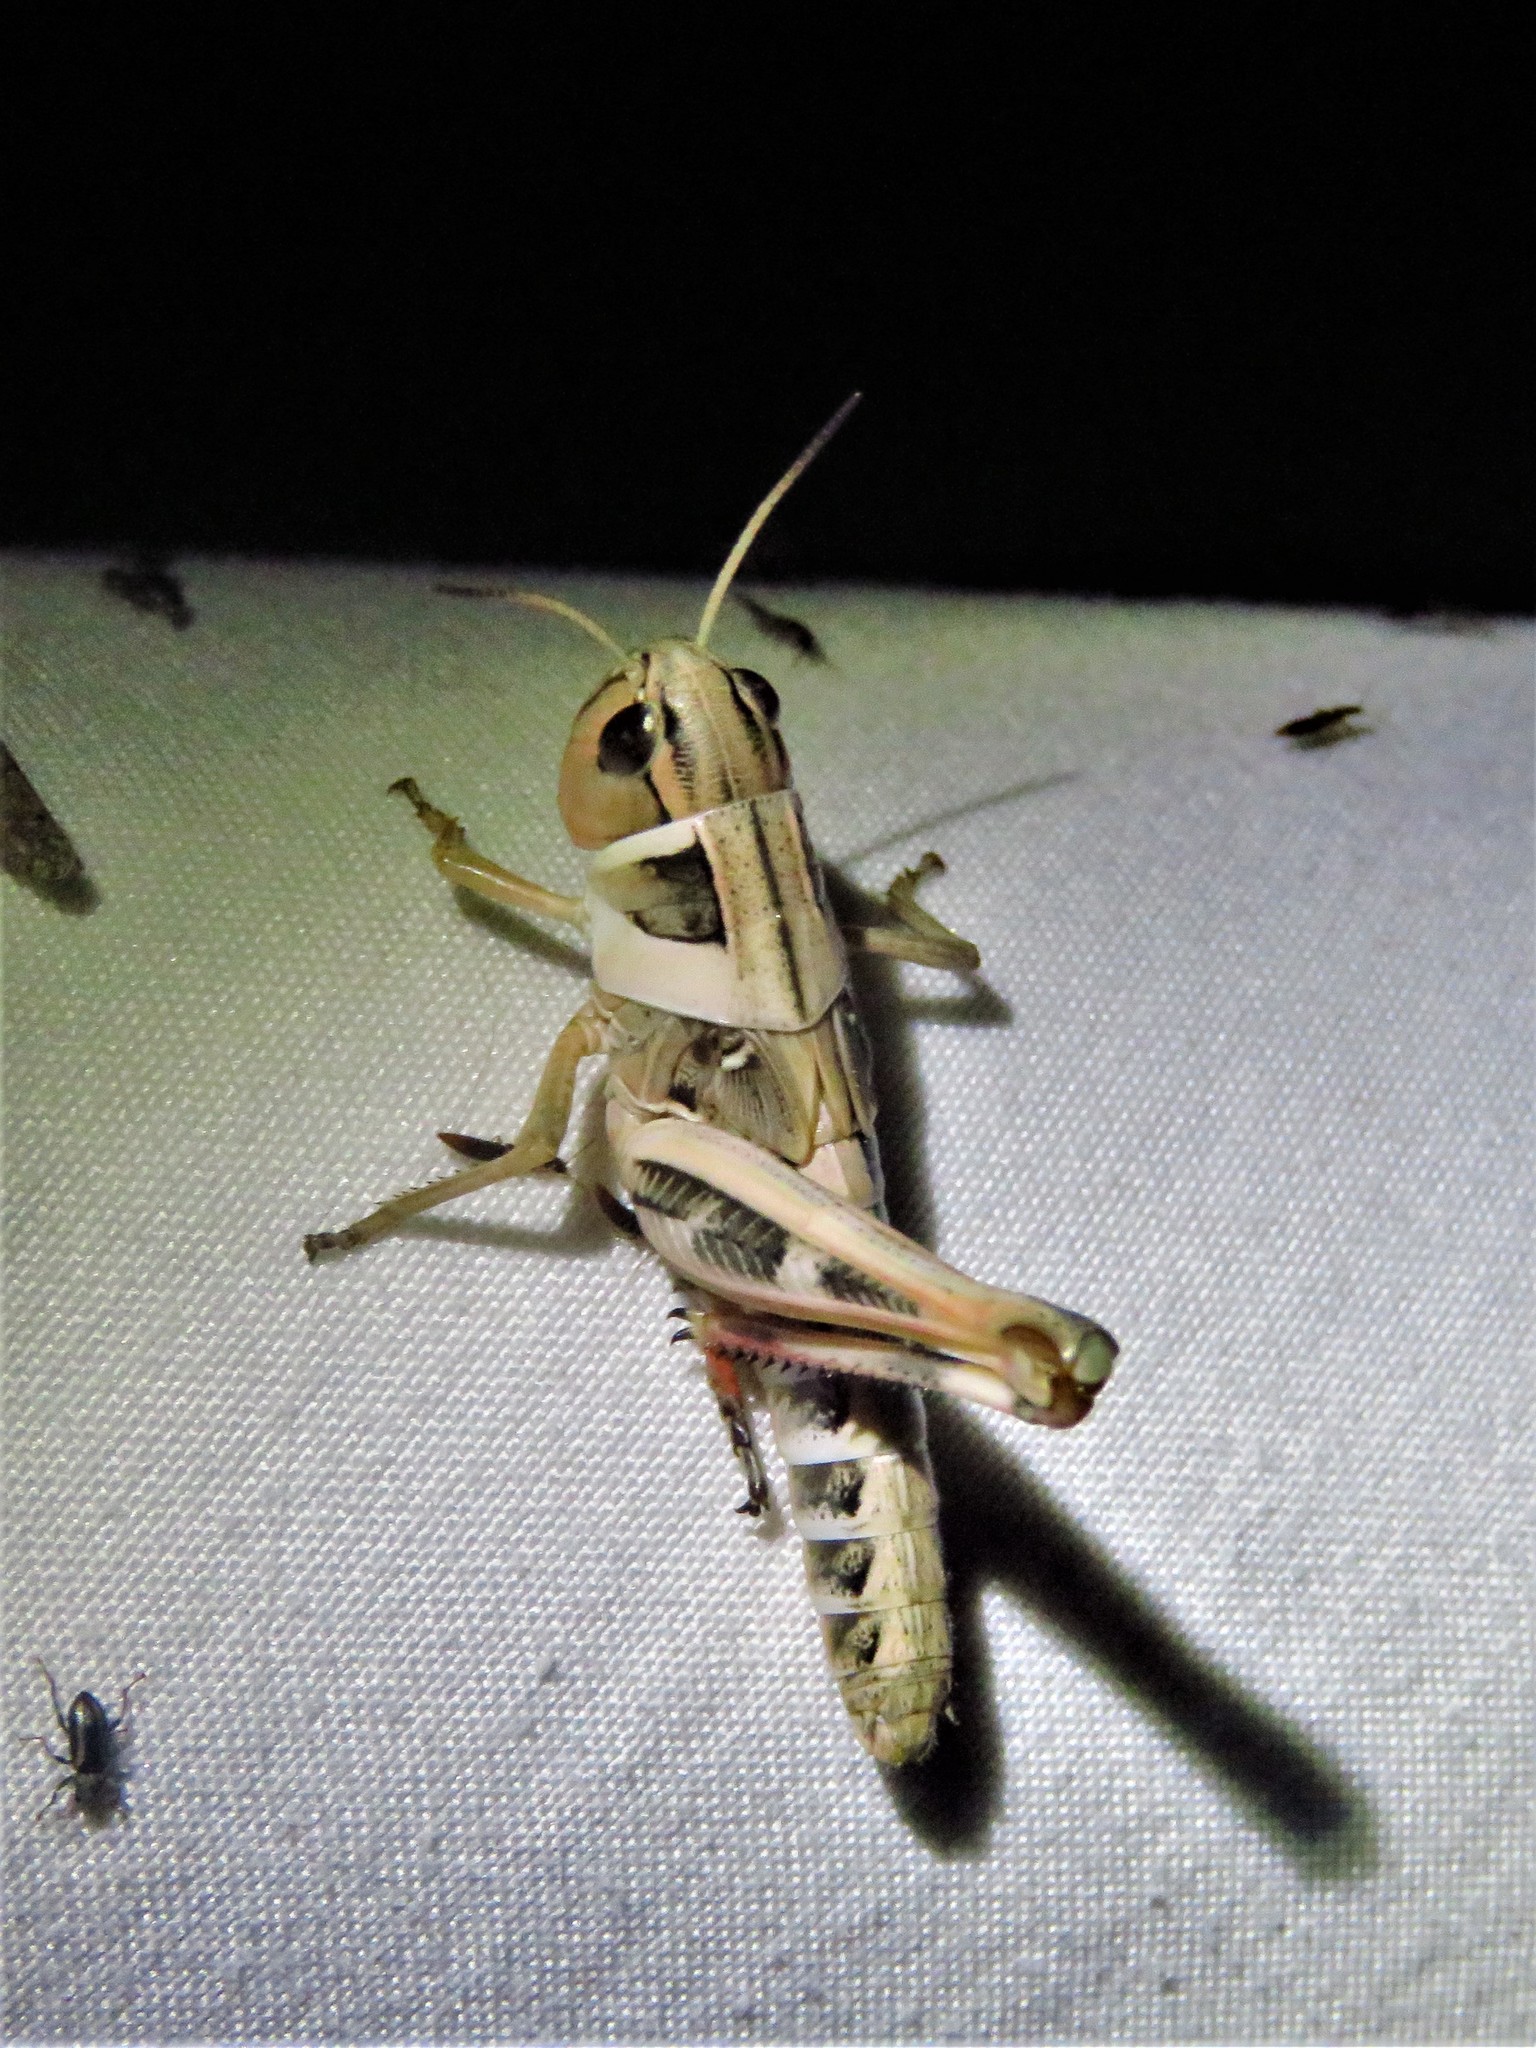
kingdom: Animalia
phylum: Arthropoda
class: Insecta
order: Orthoptera
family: Acrididae
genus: Boopedon
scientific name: Boopedon gracile
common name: Graceful range grasshopper
